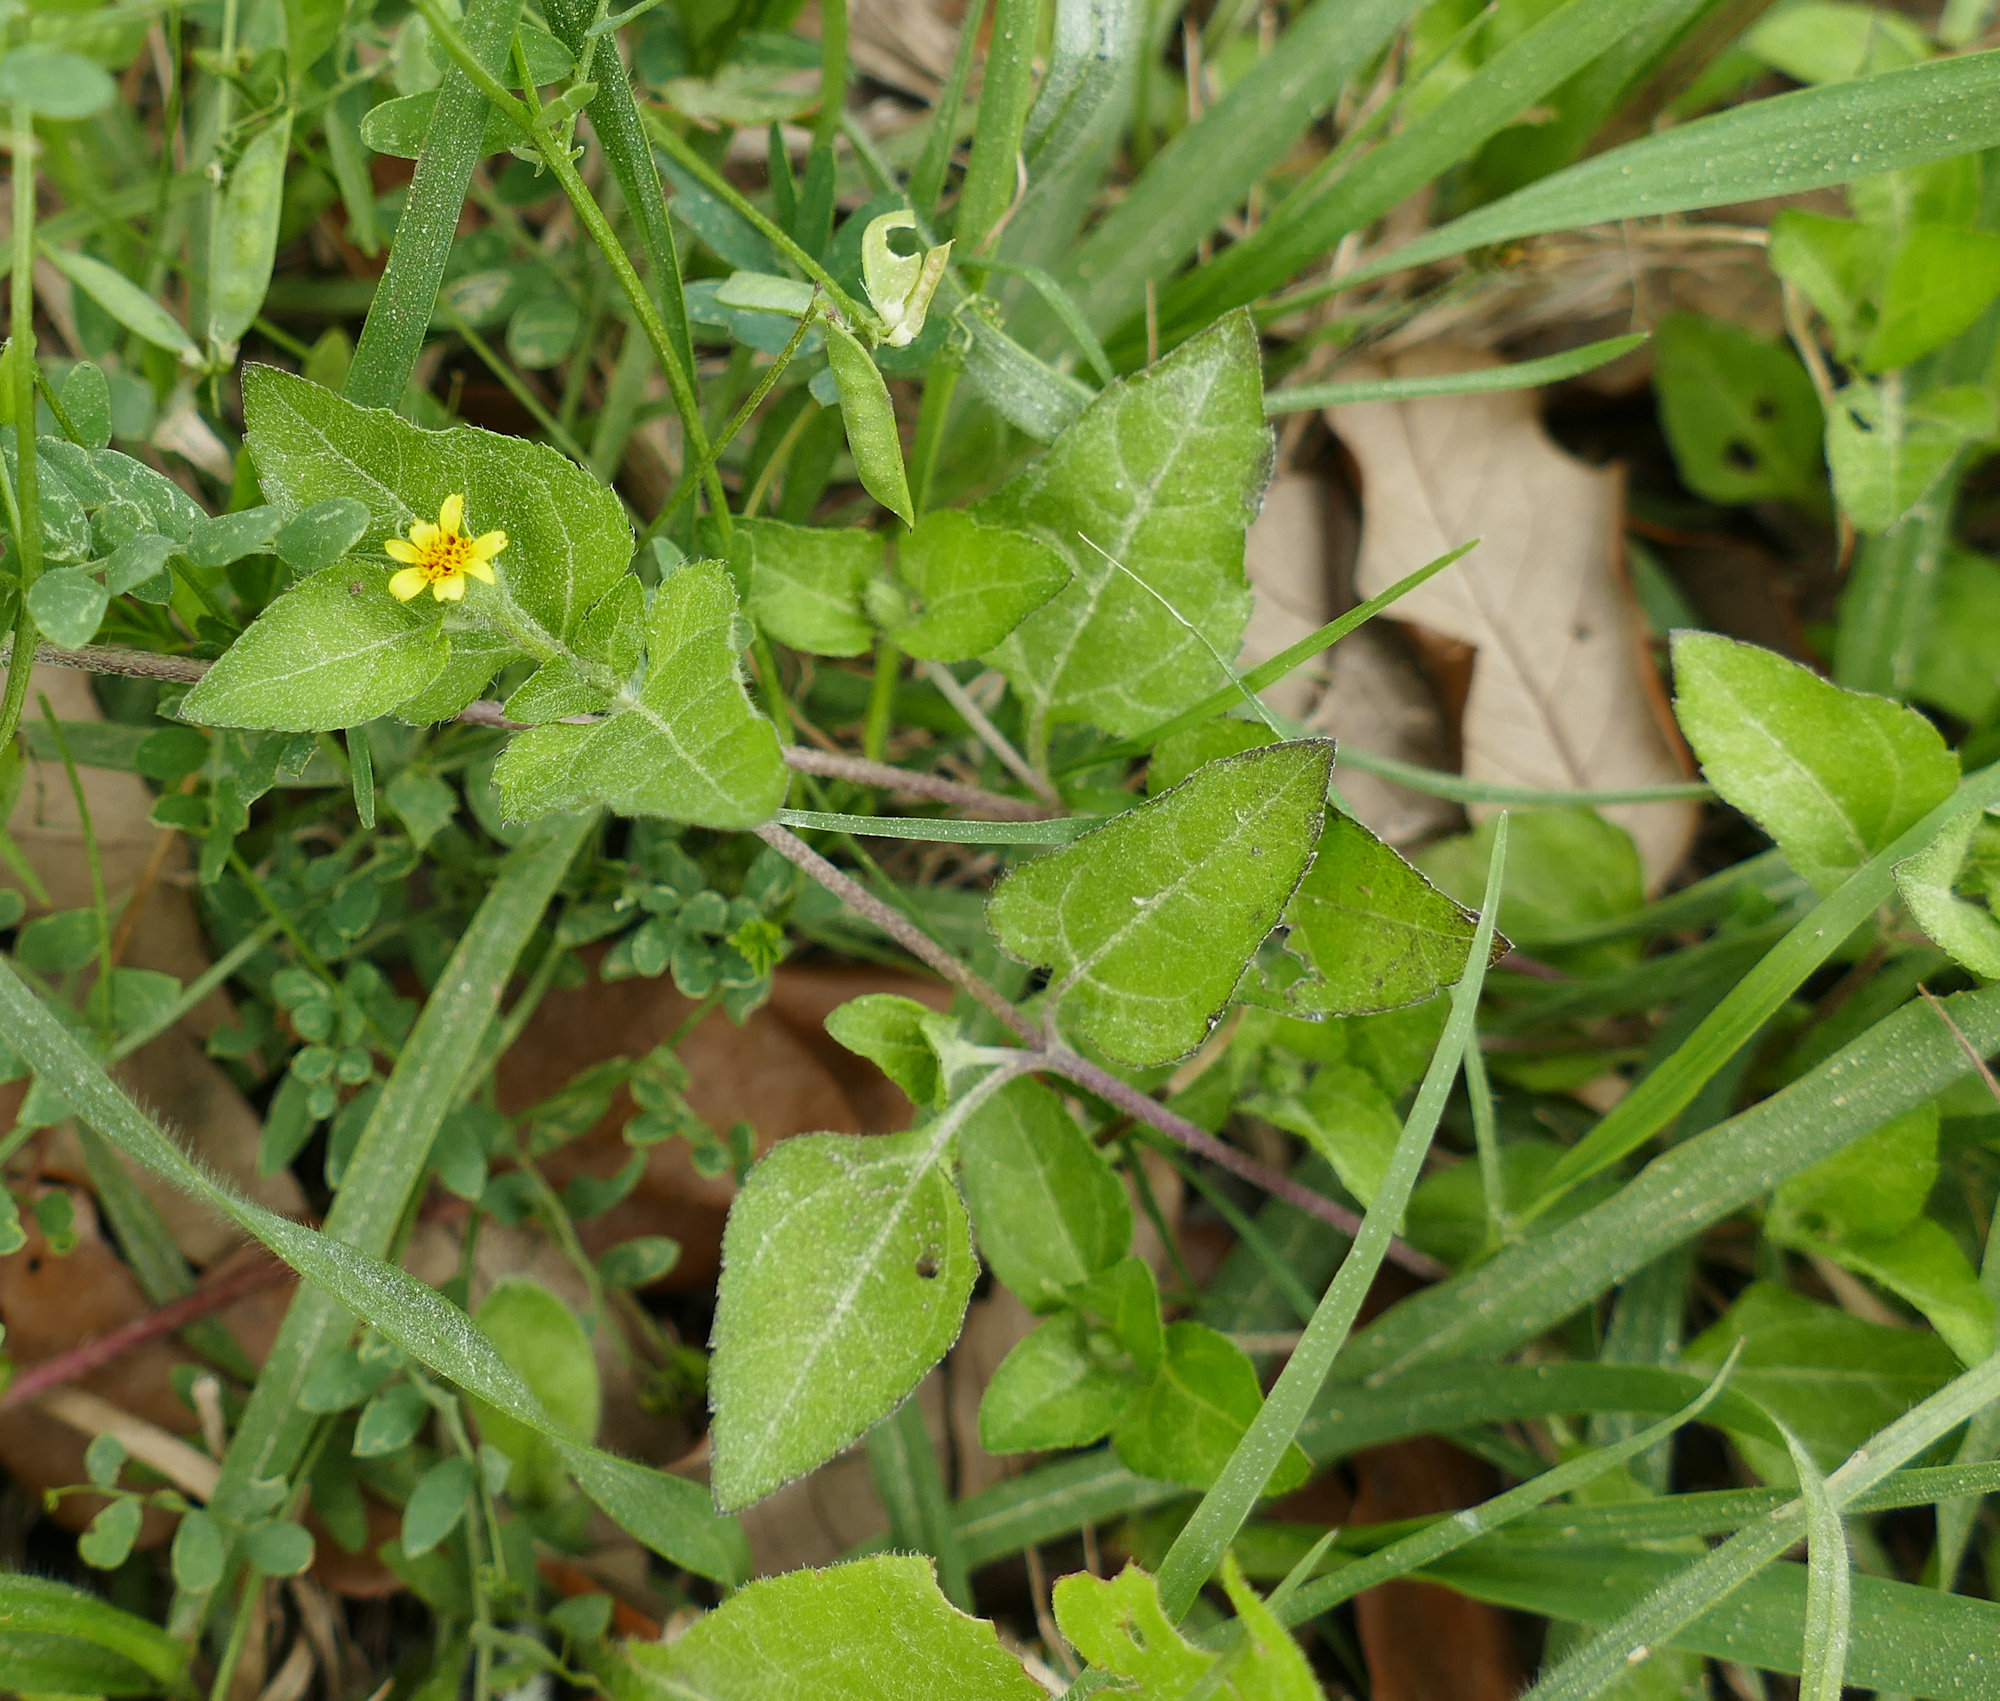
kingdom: Plantae
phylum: Tracheophyta
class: Magnoliopsida
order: Asterales
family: Asteraceae
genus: Calyptocarpus
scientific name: Calyptocarpus vialis
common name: Straggler daisy
